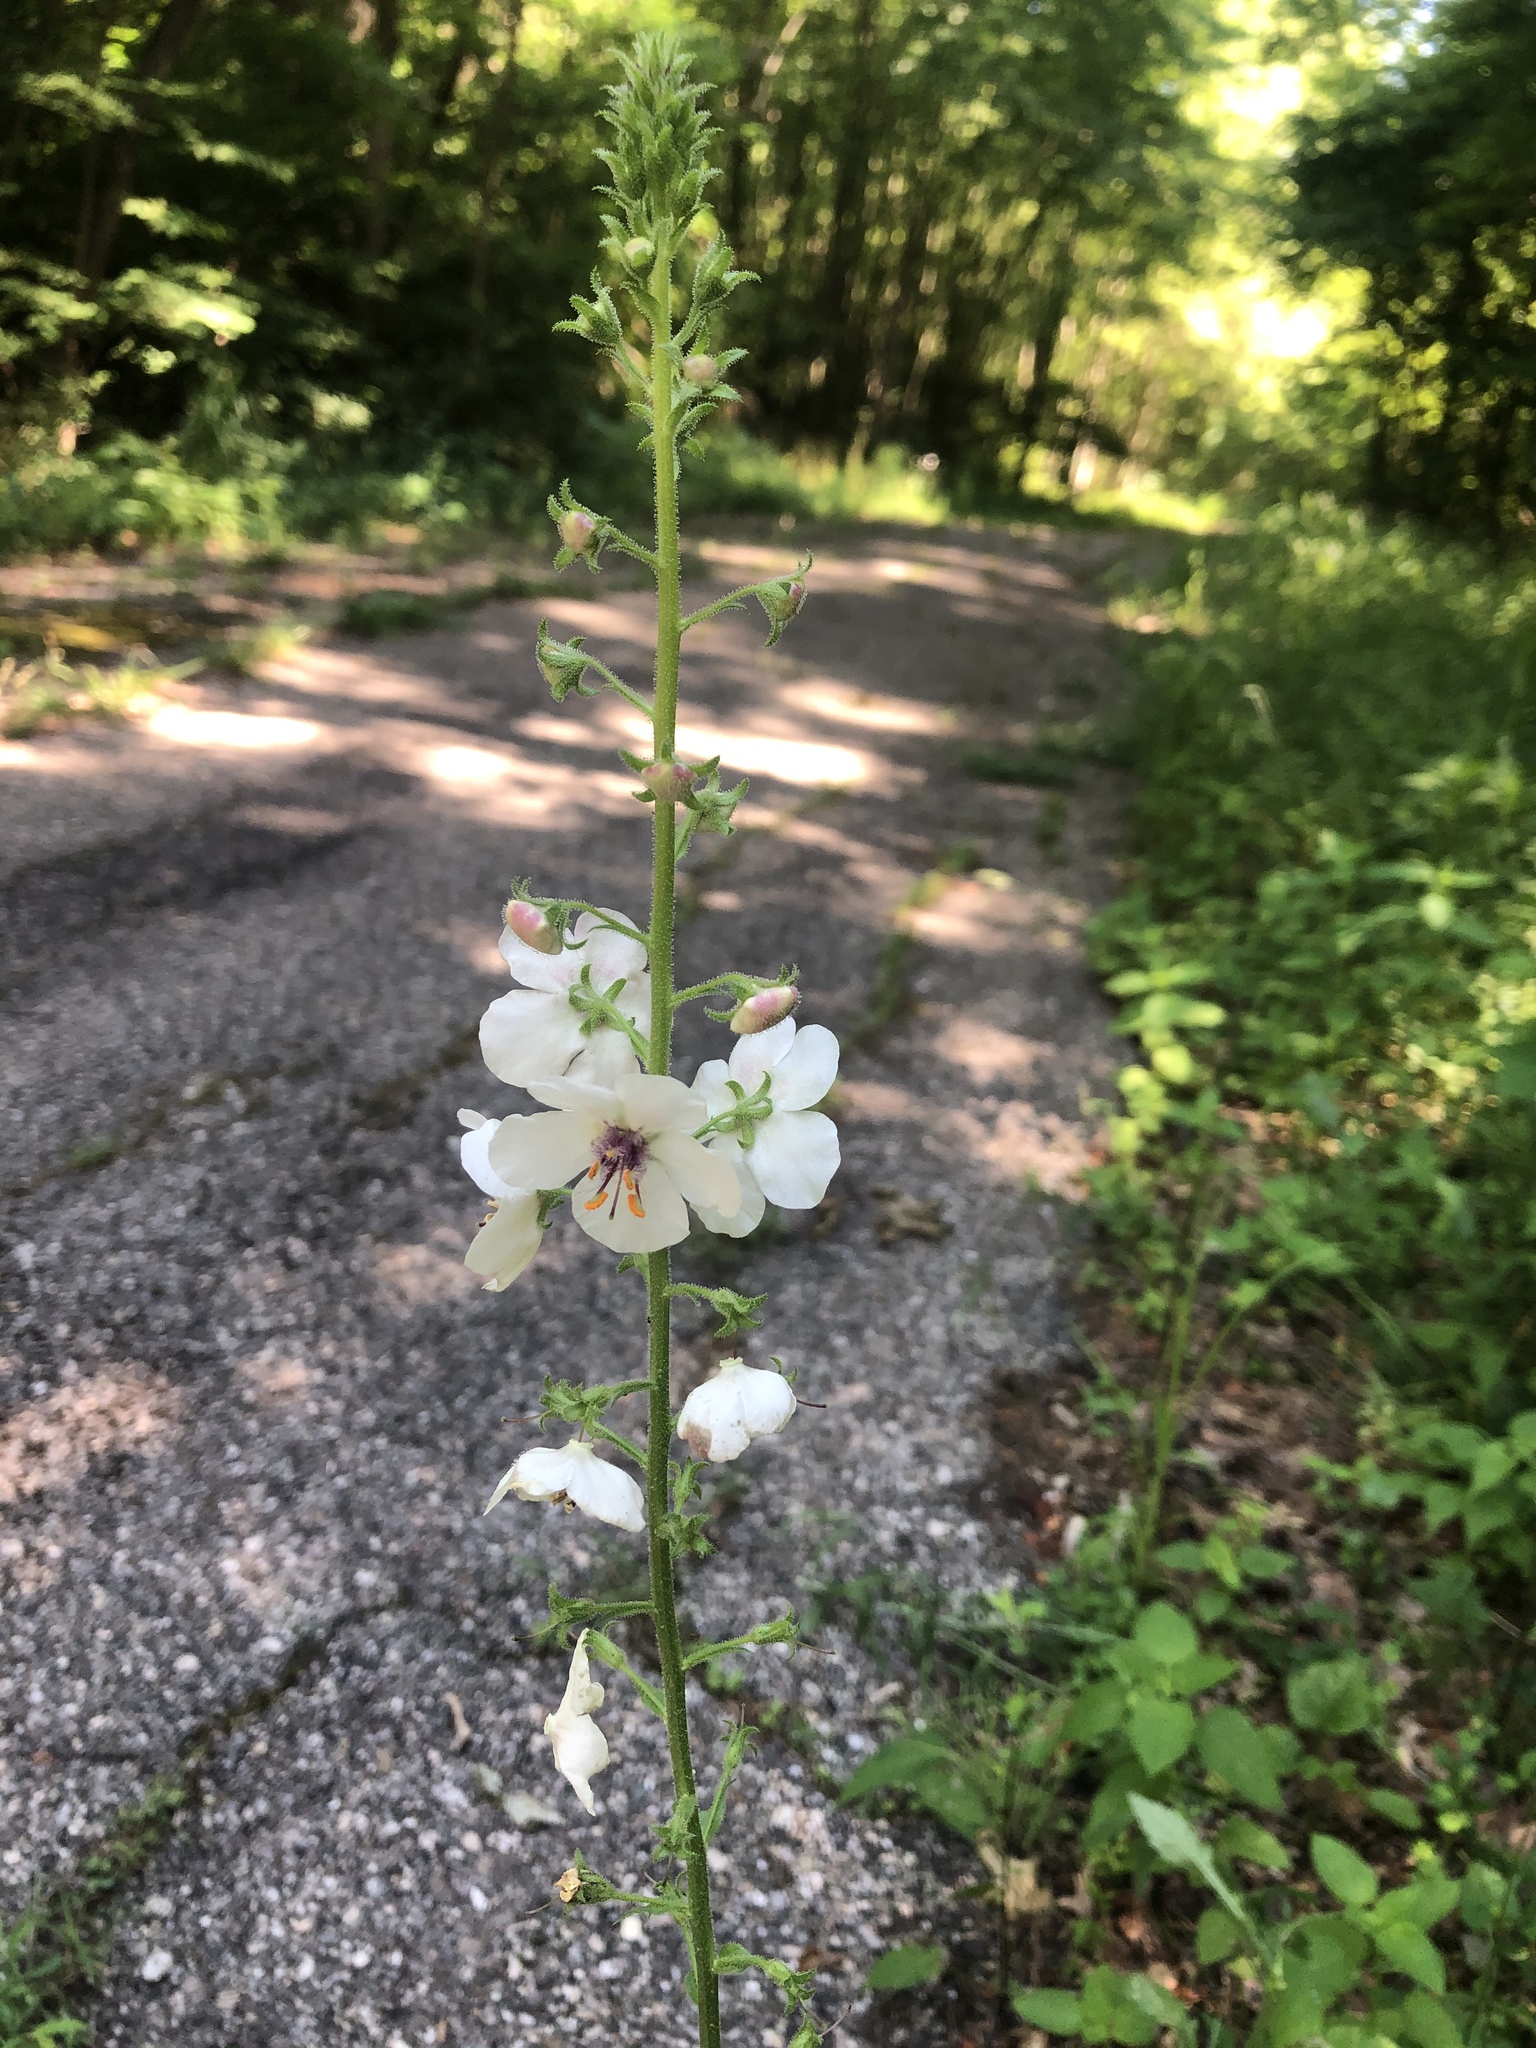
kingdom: Plantae
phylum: Tracheophyta
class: Magnoliopsida
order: Lamiales
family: Scrophulariaceae
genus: Verbascum
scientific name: Verbascum blattaria
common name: Moth mullein
